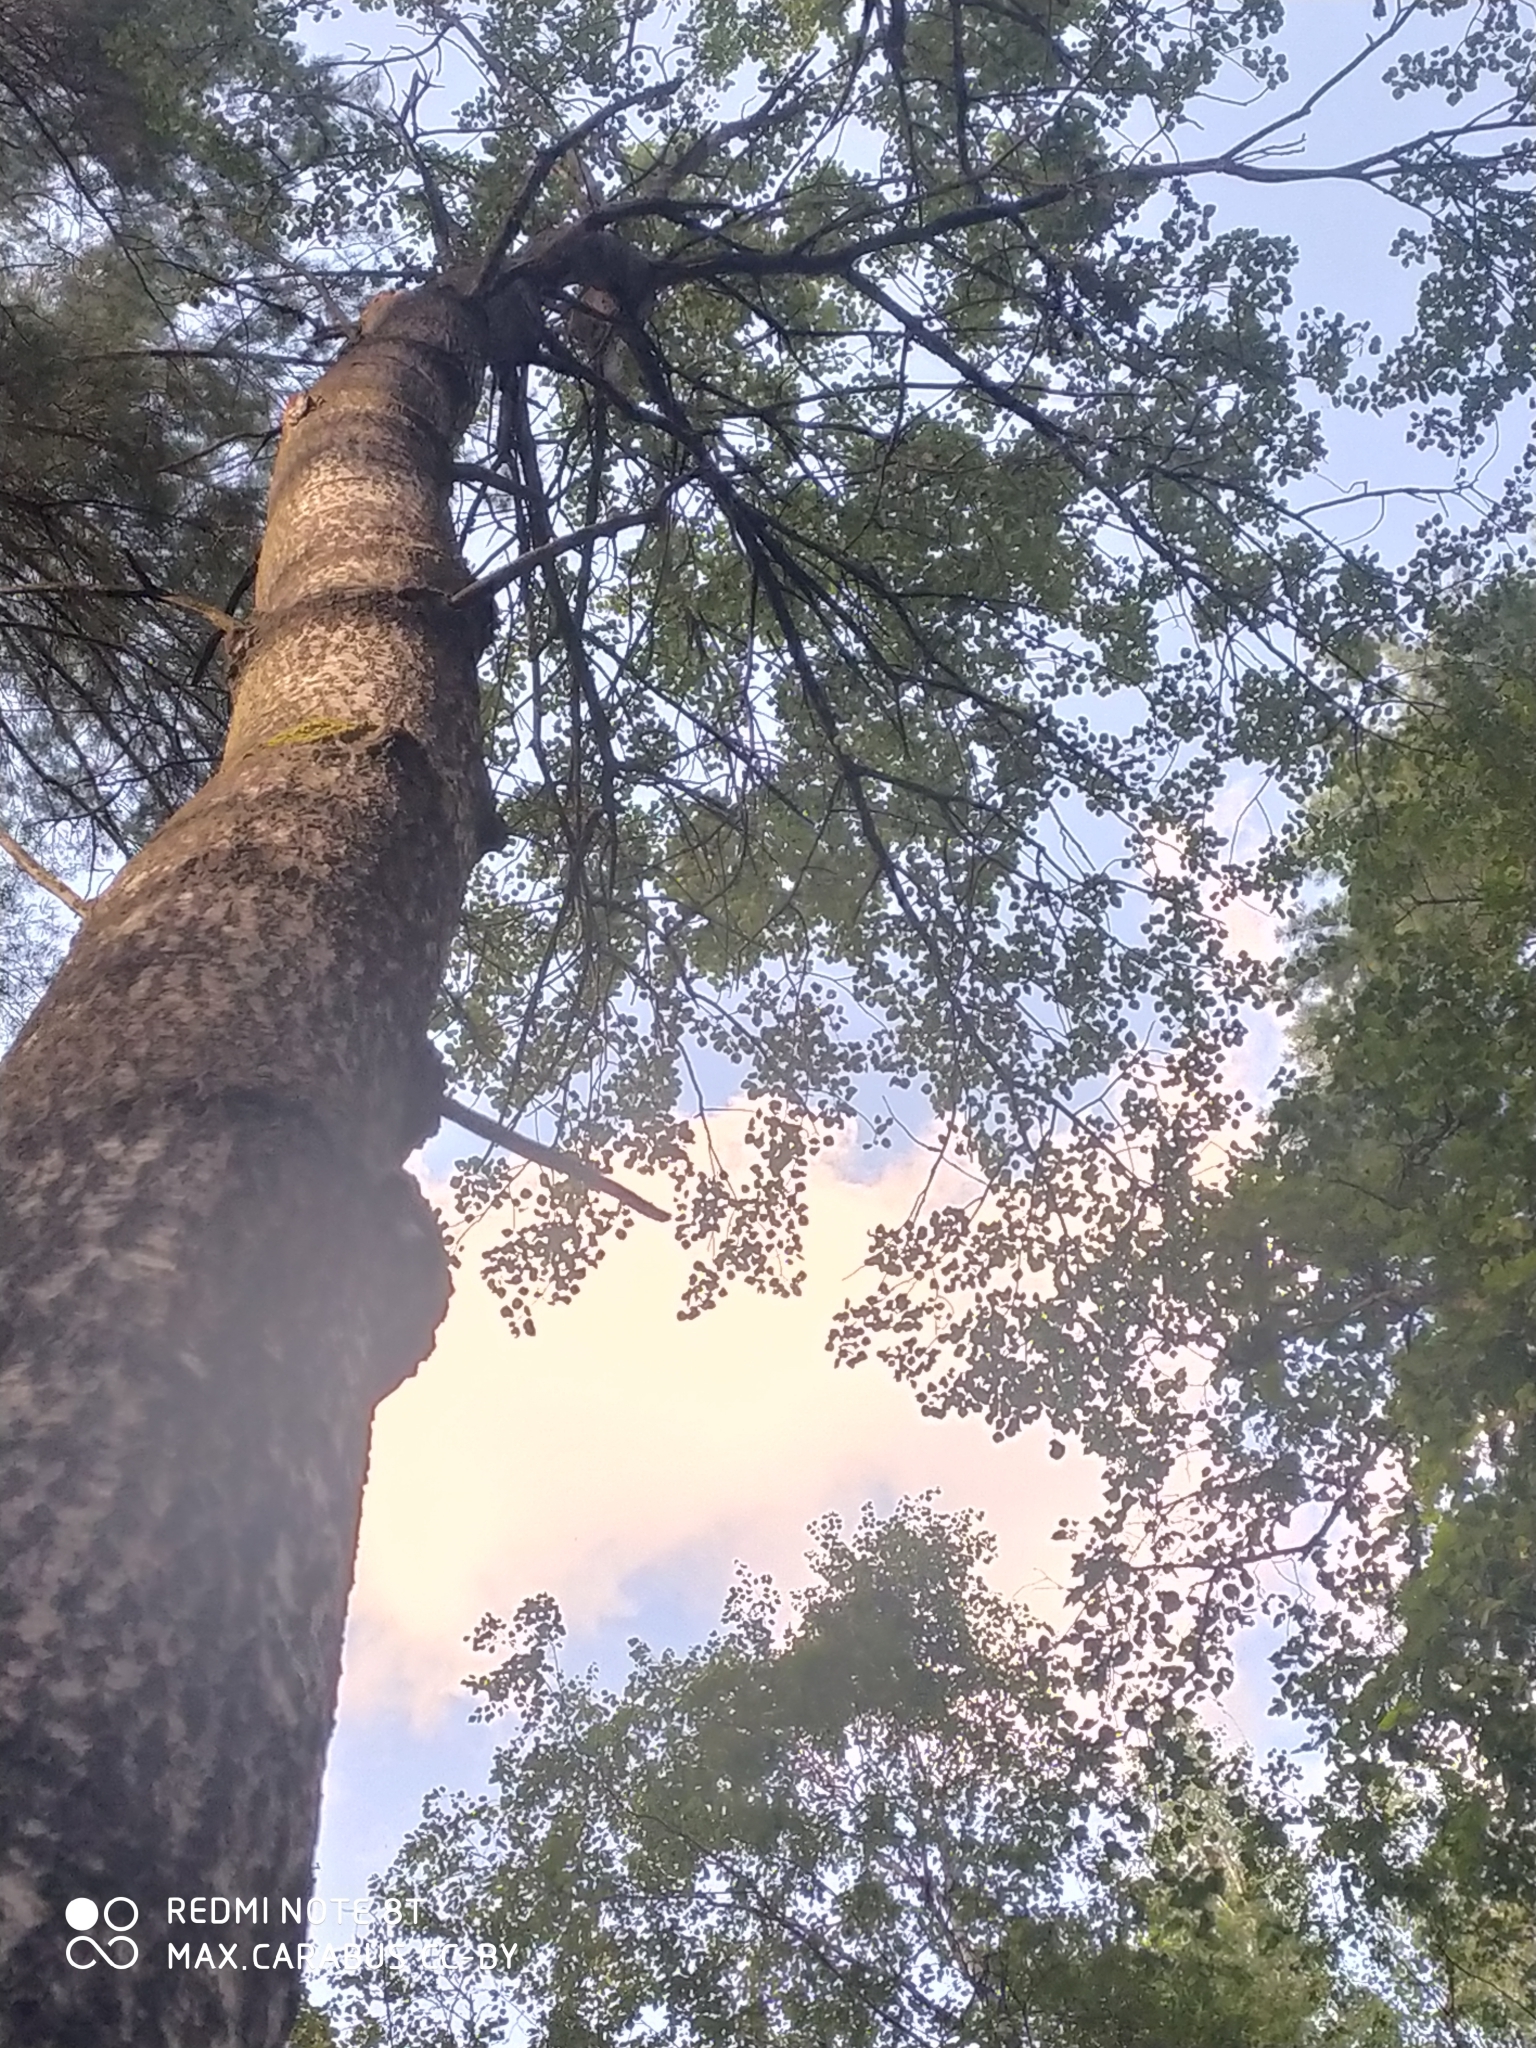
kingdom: Plantae
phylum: Tracheophyta
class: Magnoliopsida
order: Malpighiales
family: Salicaceae
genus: Populus
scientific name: Populus tremula
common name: European aspen
